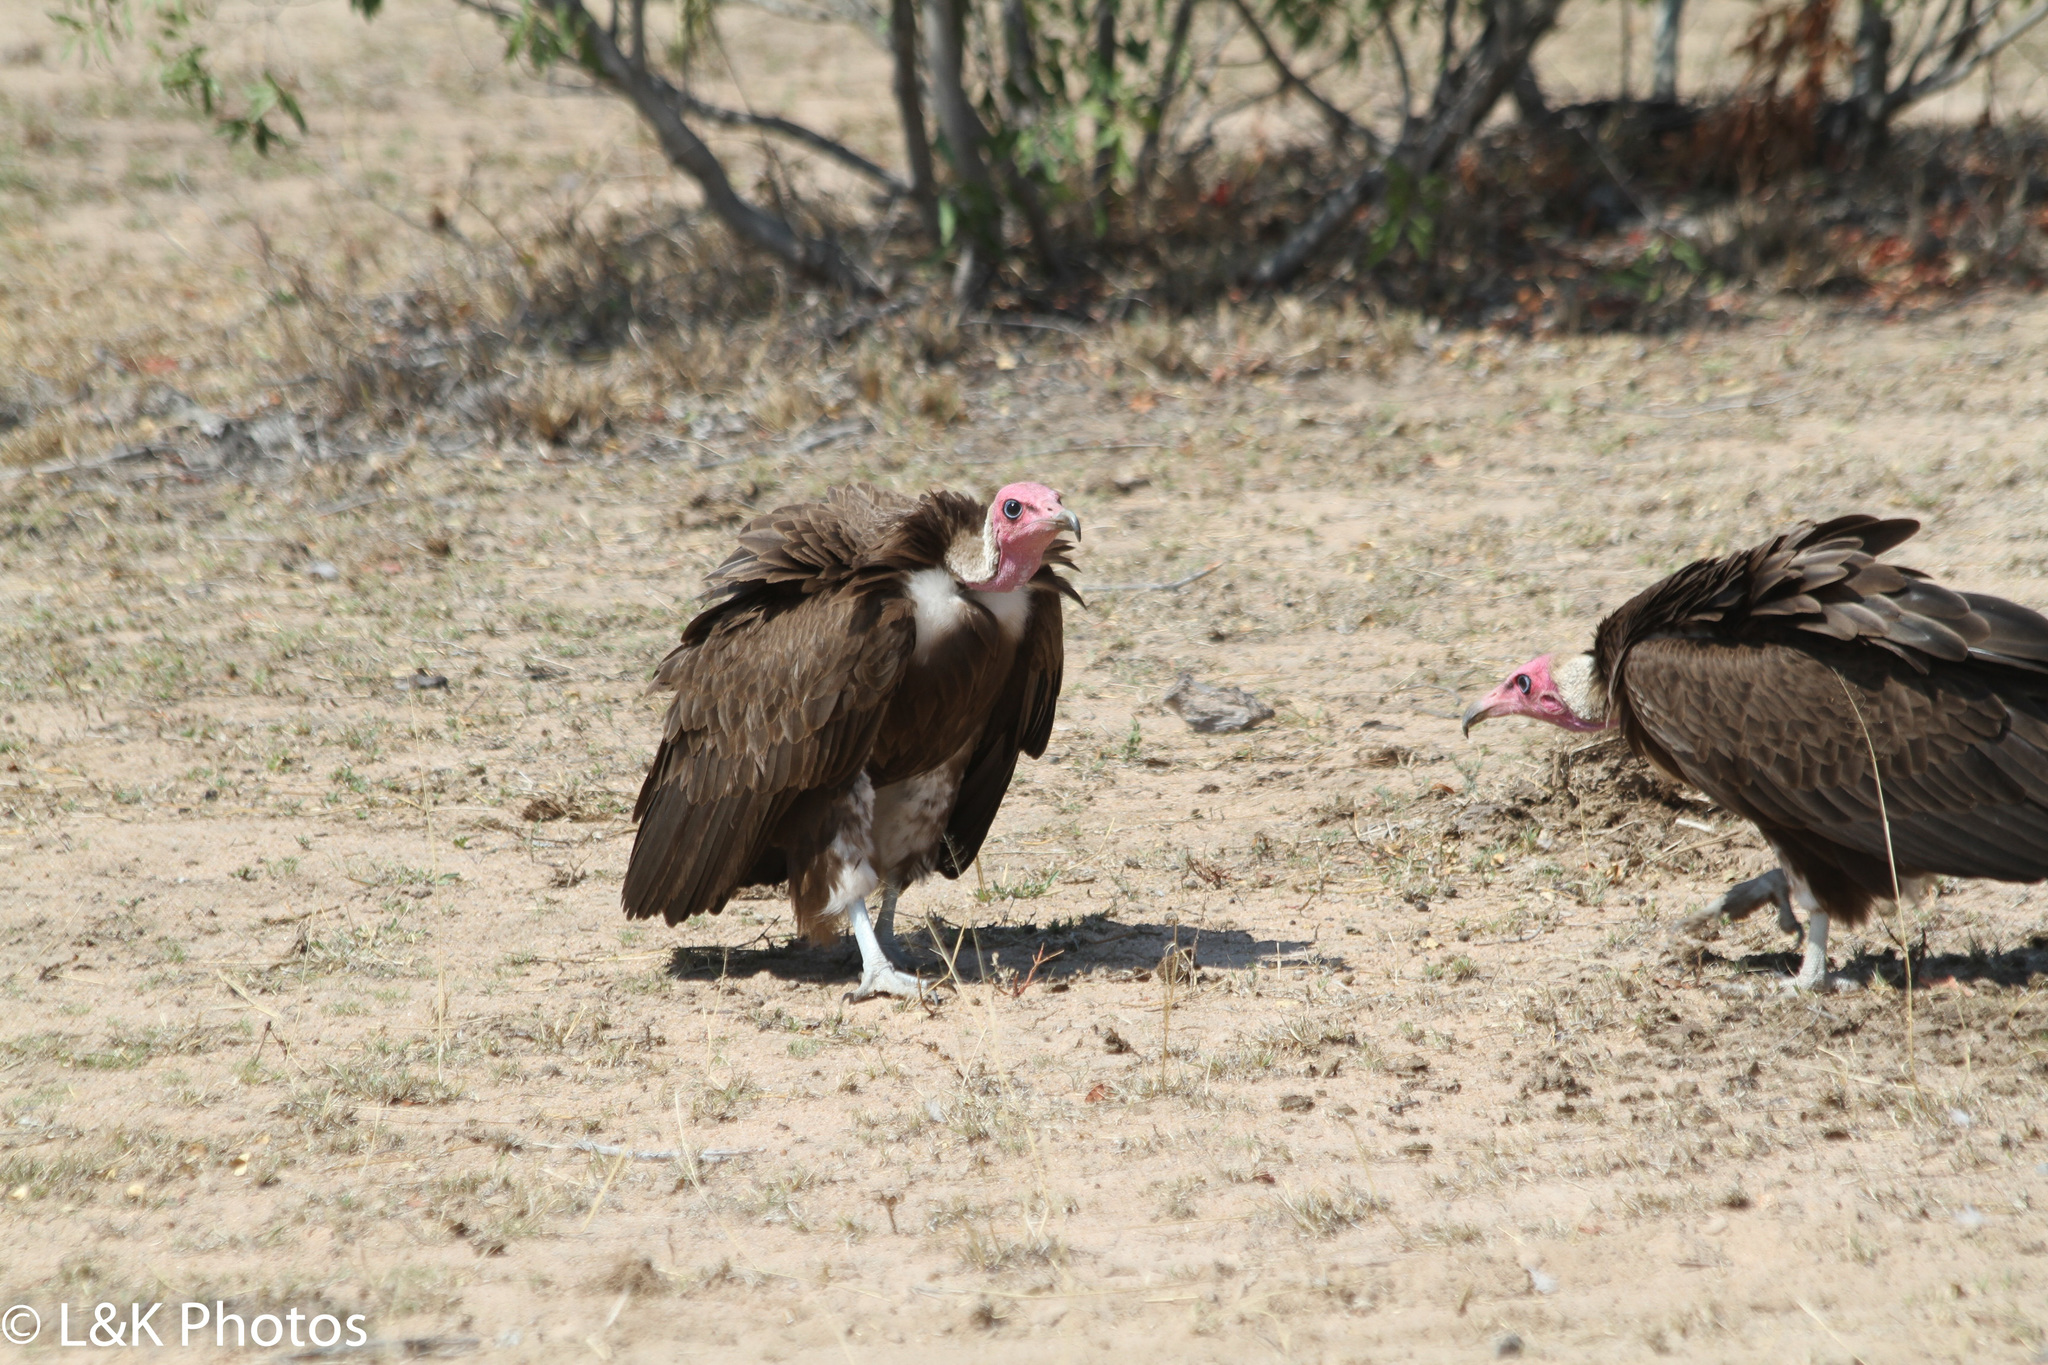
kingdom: Animalia
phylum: Chordata
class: Aves
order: Accipitriformes
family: Accipitridae
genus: Necrosyrtes
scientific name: Necrosyrtes monachus
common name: Hooded vulture
